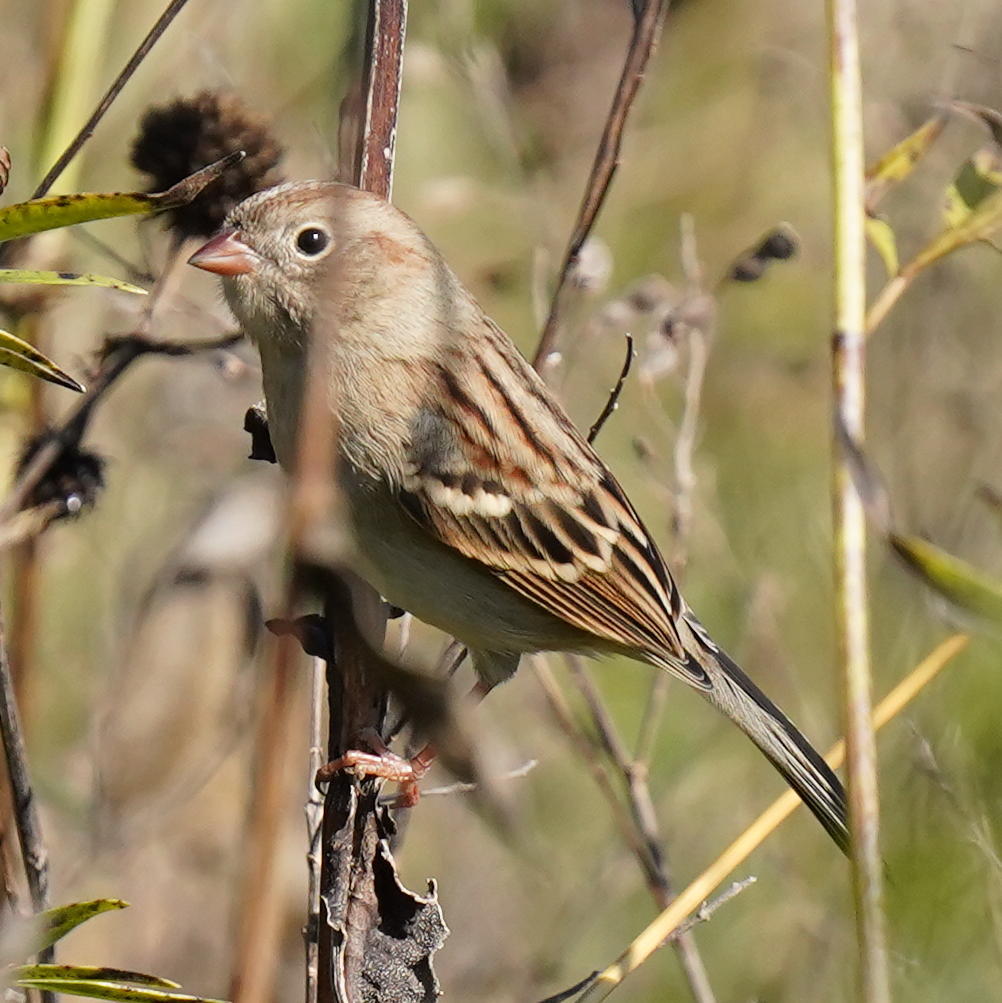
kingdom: Animalia
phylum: Chordata
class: Aves
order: Passeriformes
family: Passerellidae
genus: Spizella
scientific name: Spizella pusilla
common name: Field sparrow
